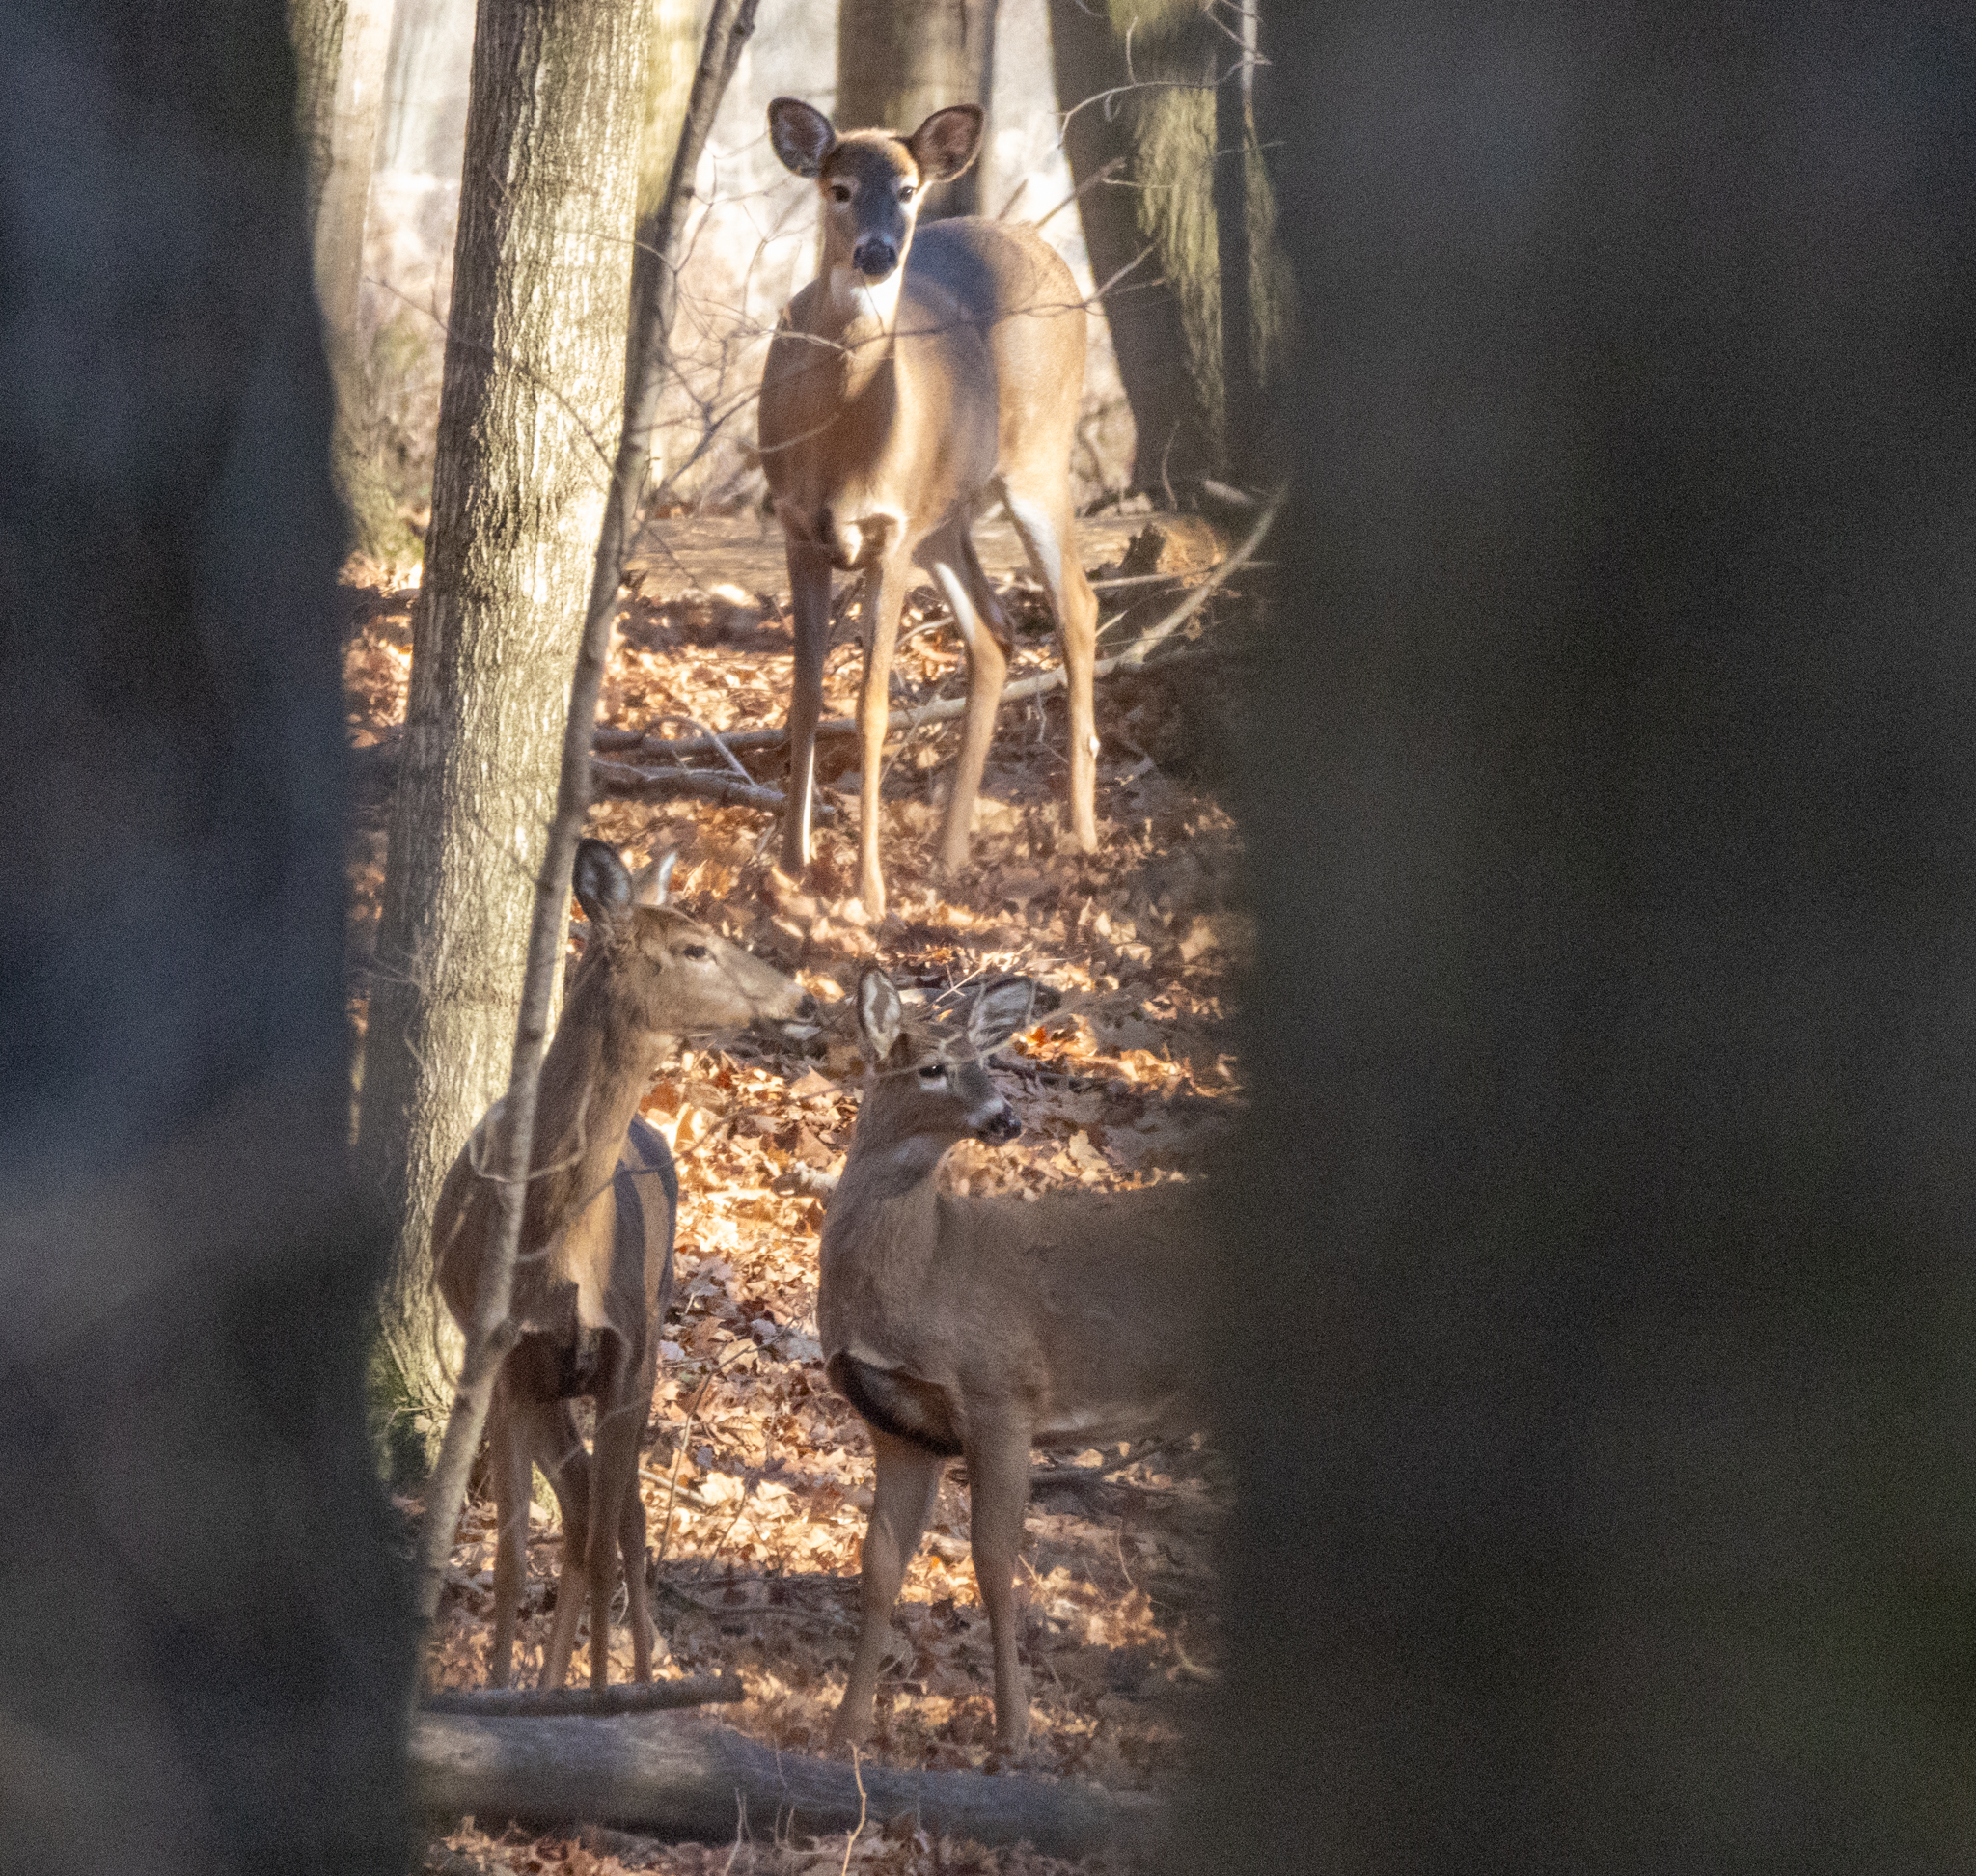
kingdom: Animalia
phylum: Chordata
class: Mammalia
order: Artiodactyla
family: Cervidae
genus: Odocoileus
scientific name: Odocoileus virginianus
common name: White-tailed deer
